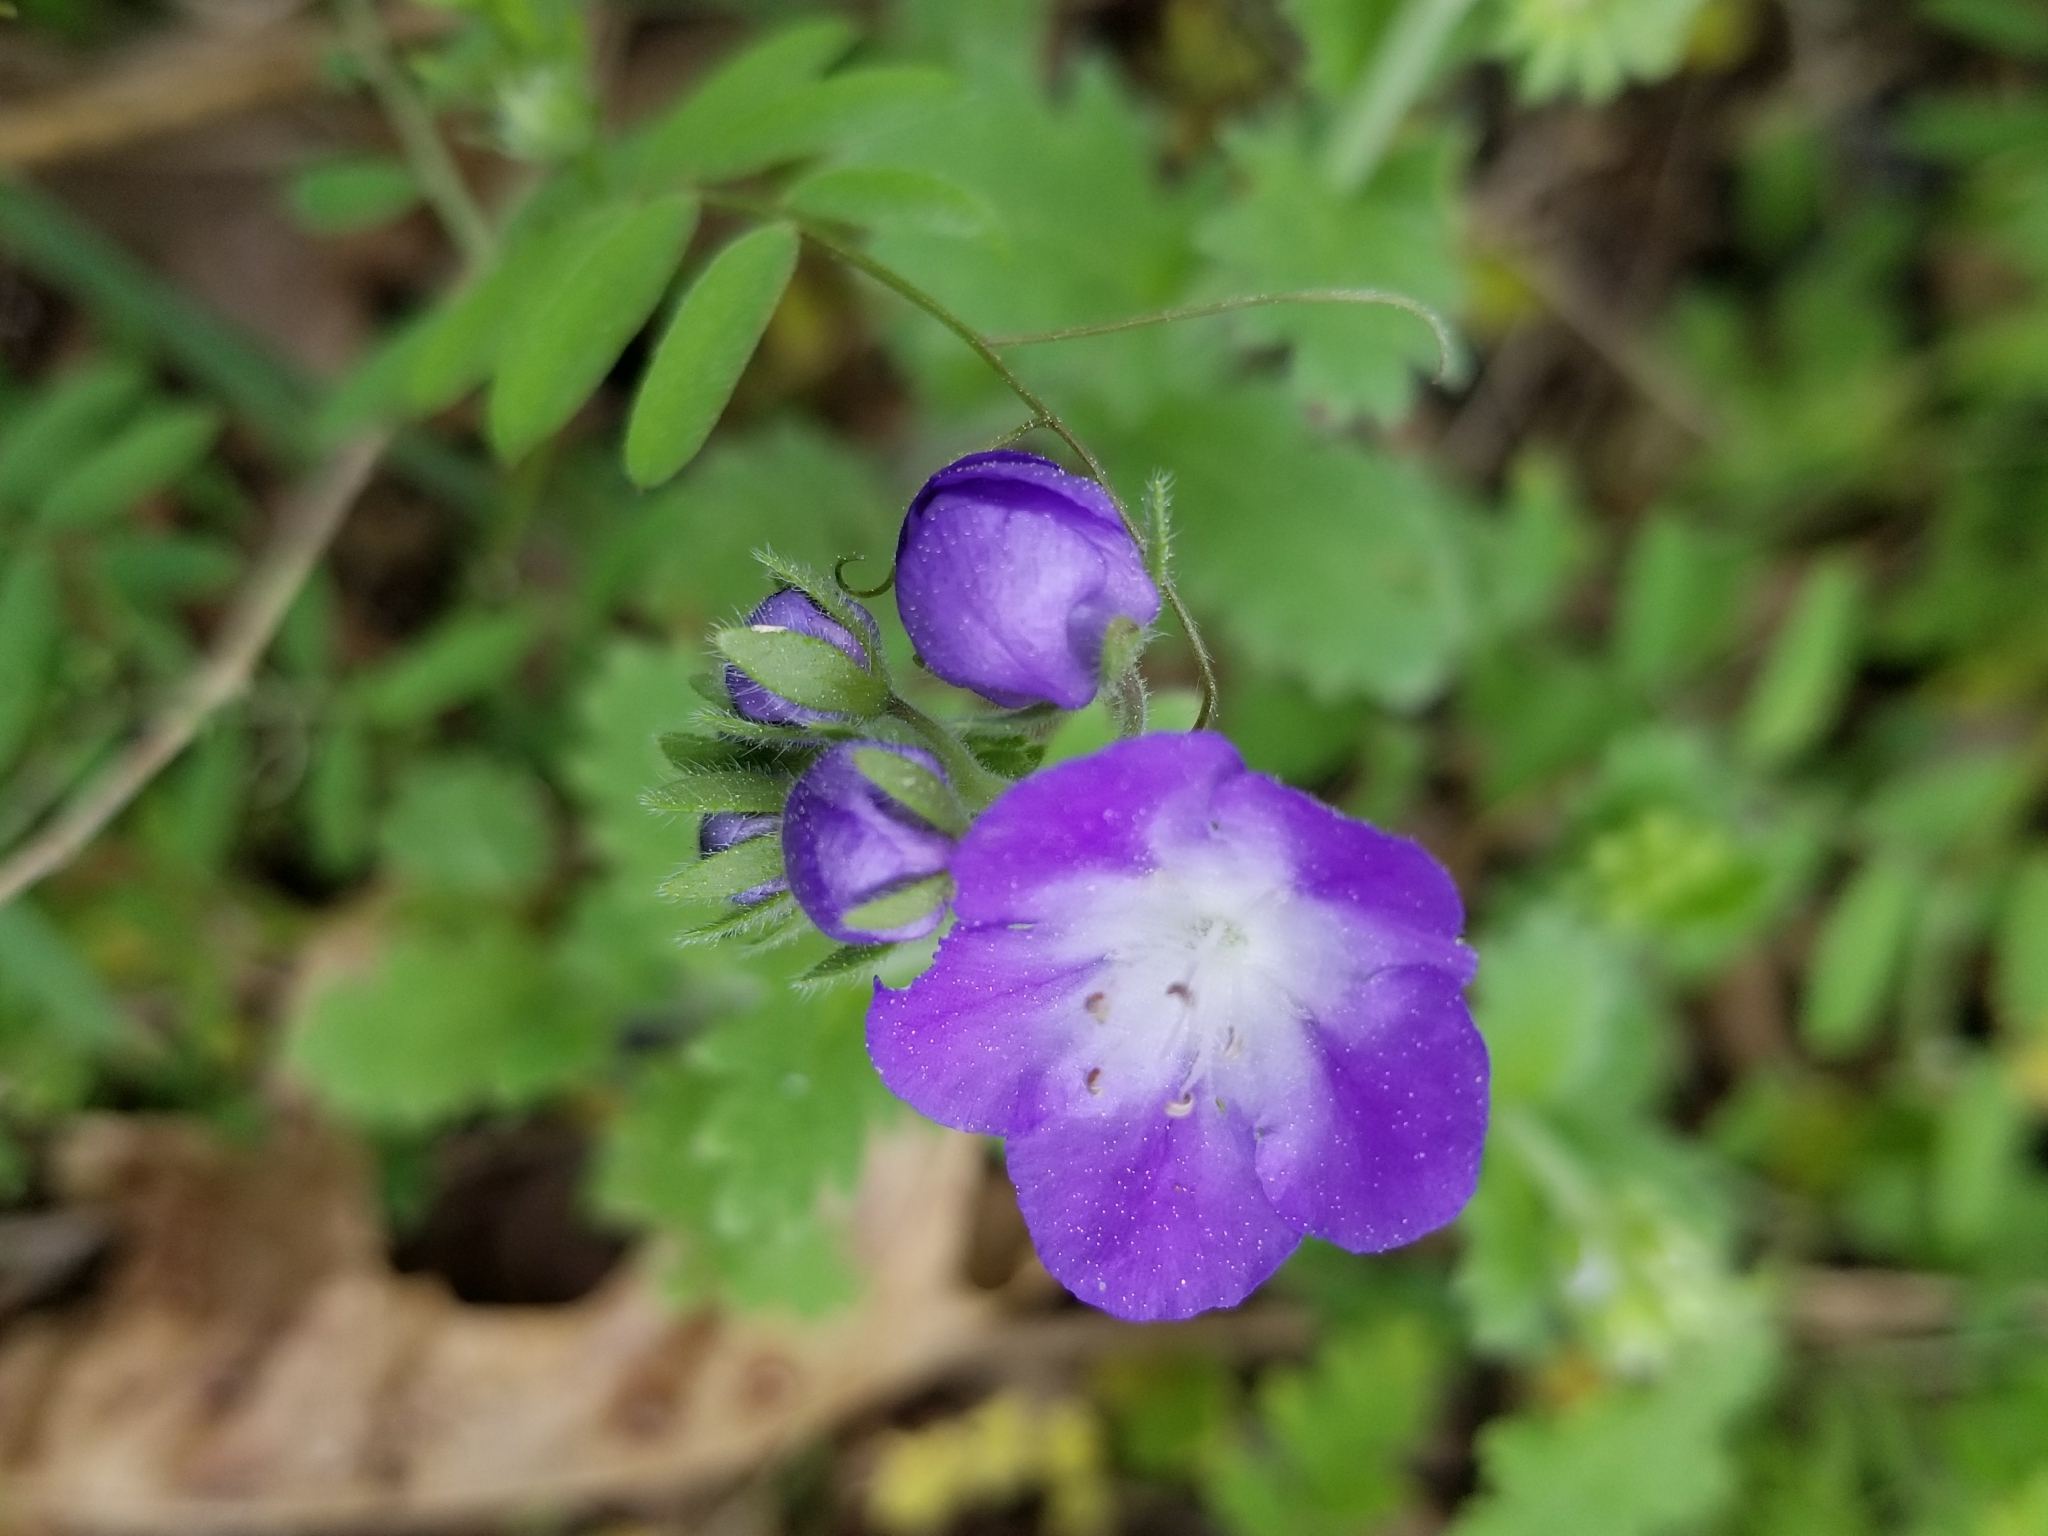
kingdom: Plantae
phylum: Tracheophyta
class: Magnoliopsida
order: Boraginales
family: Hydrophyllaceae
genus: Nemophila
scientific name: Nemophila phacelioides
